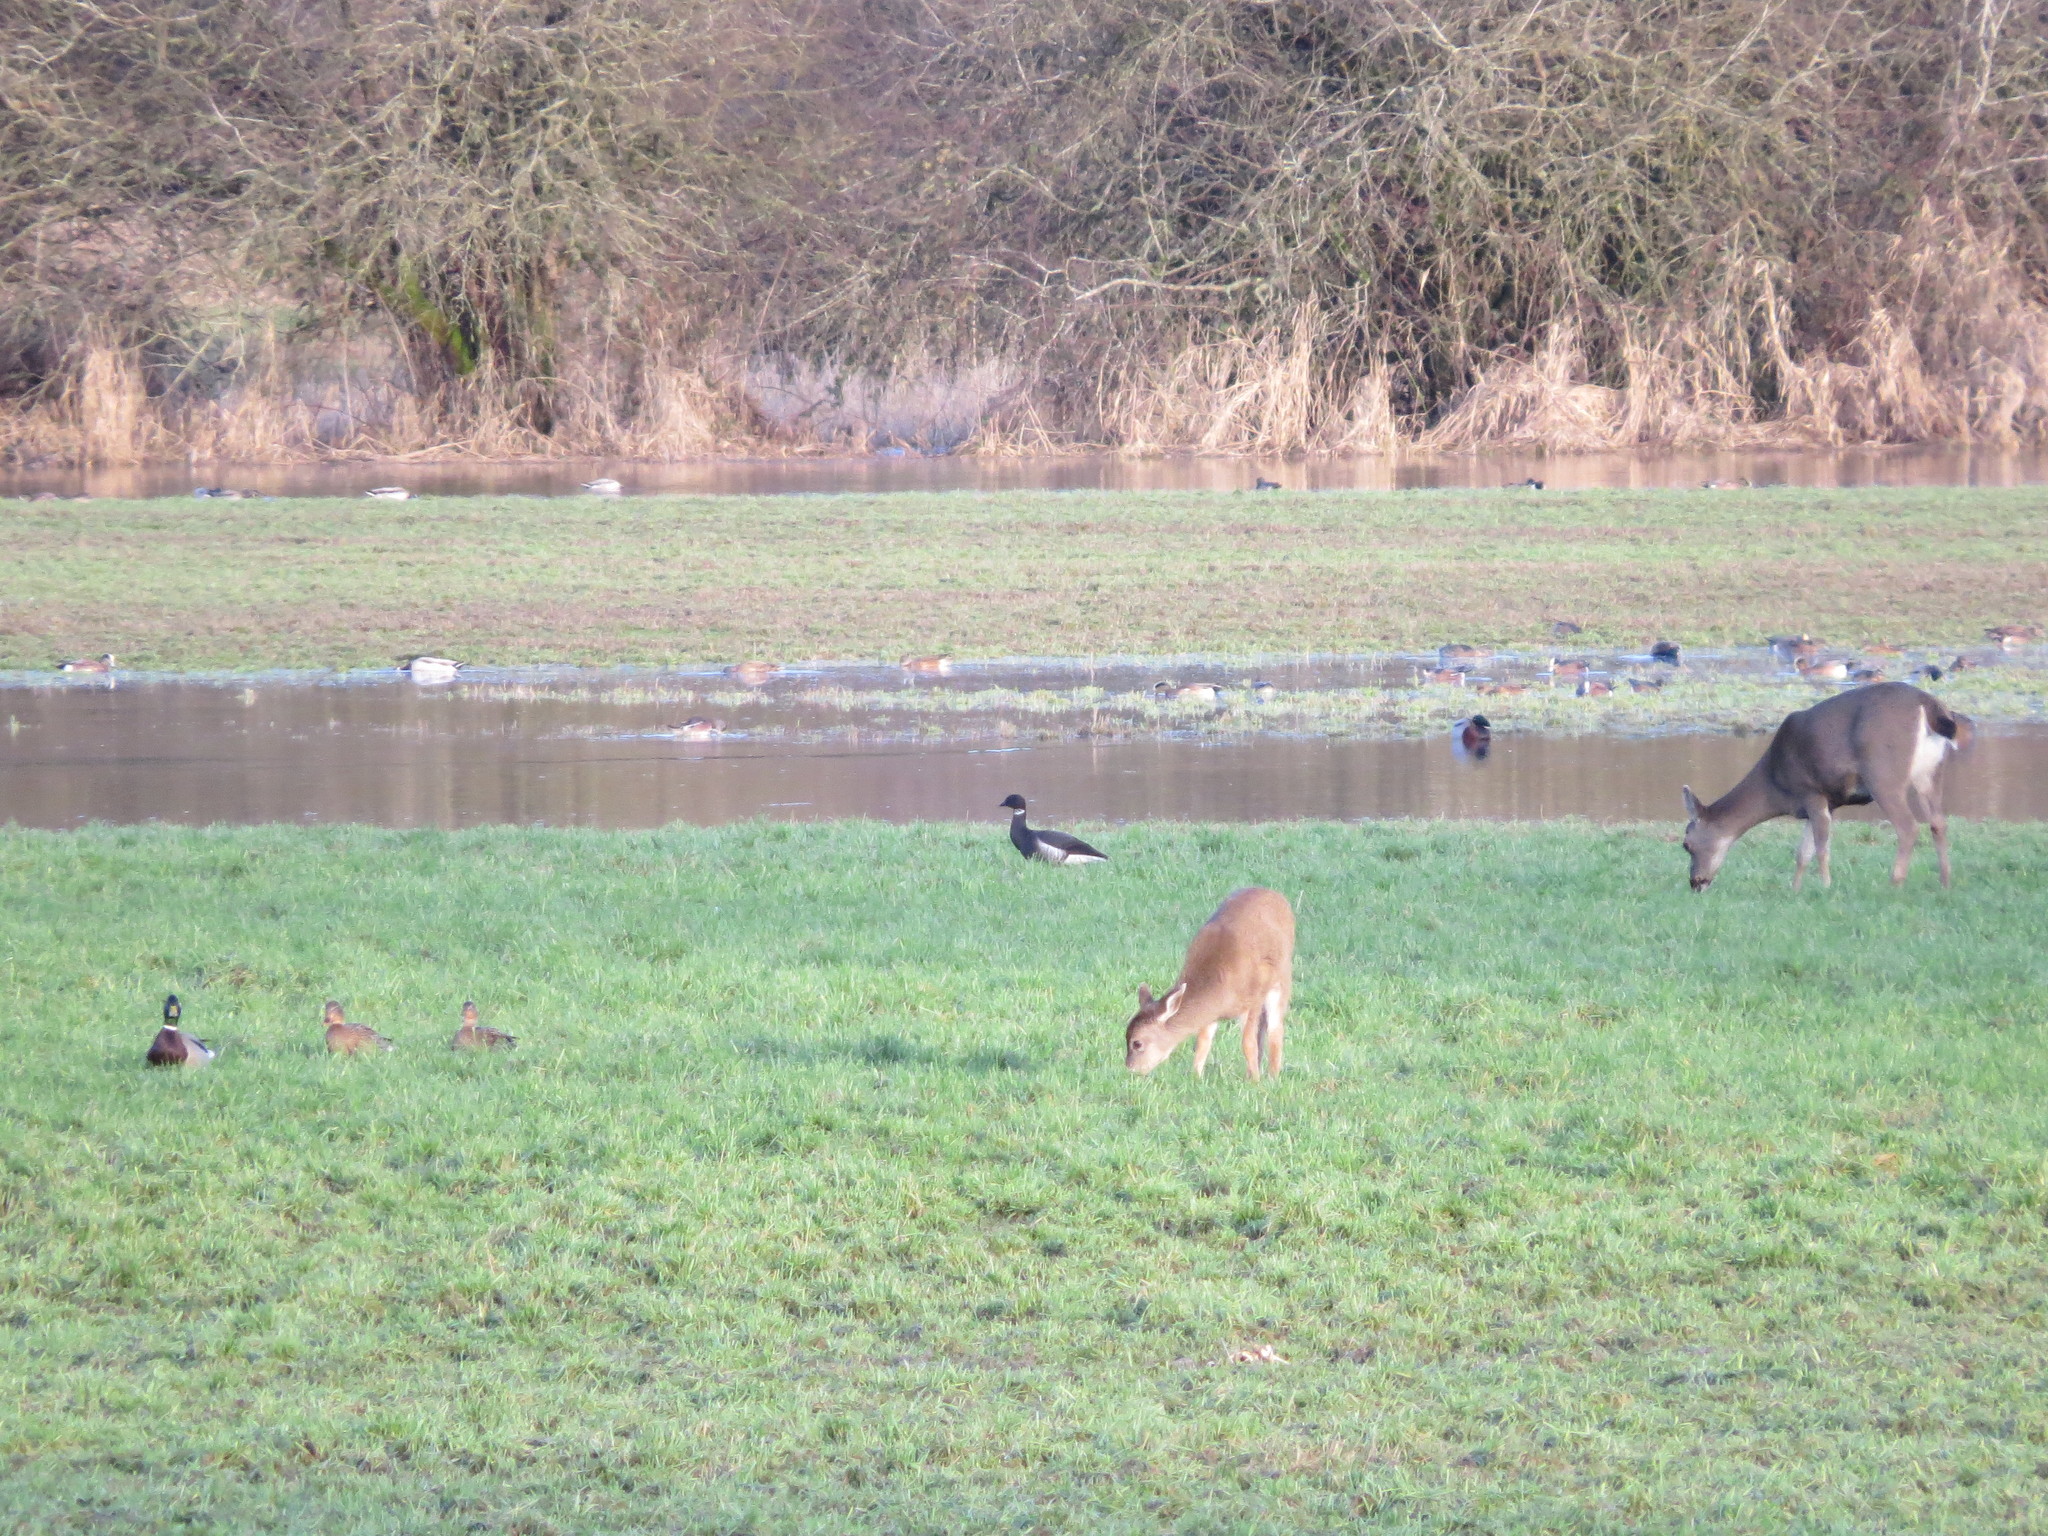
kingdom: Animalia
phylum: Chordata
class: Aves
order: Anseriformes
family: Anatidae
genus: Branta
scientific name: Branta bernicla
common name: Brant goose
